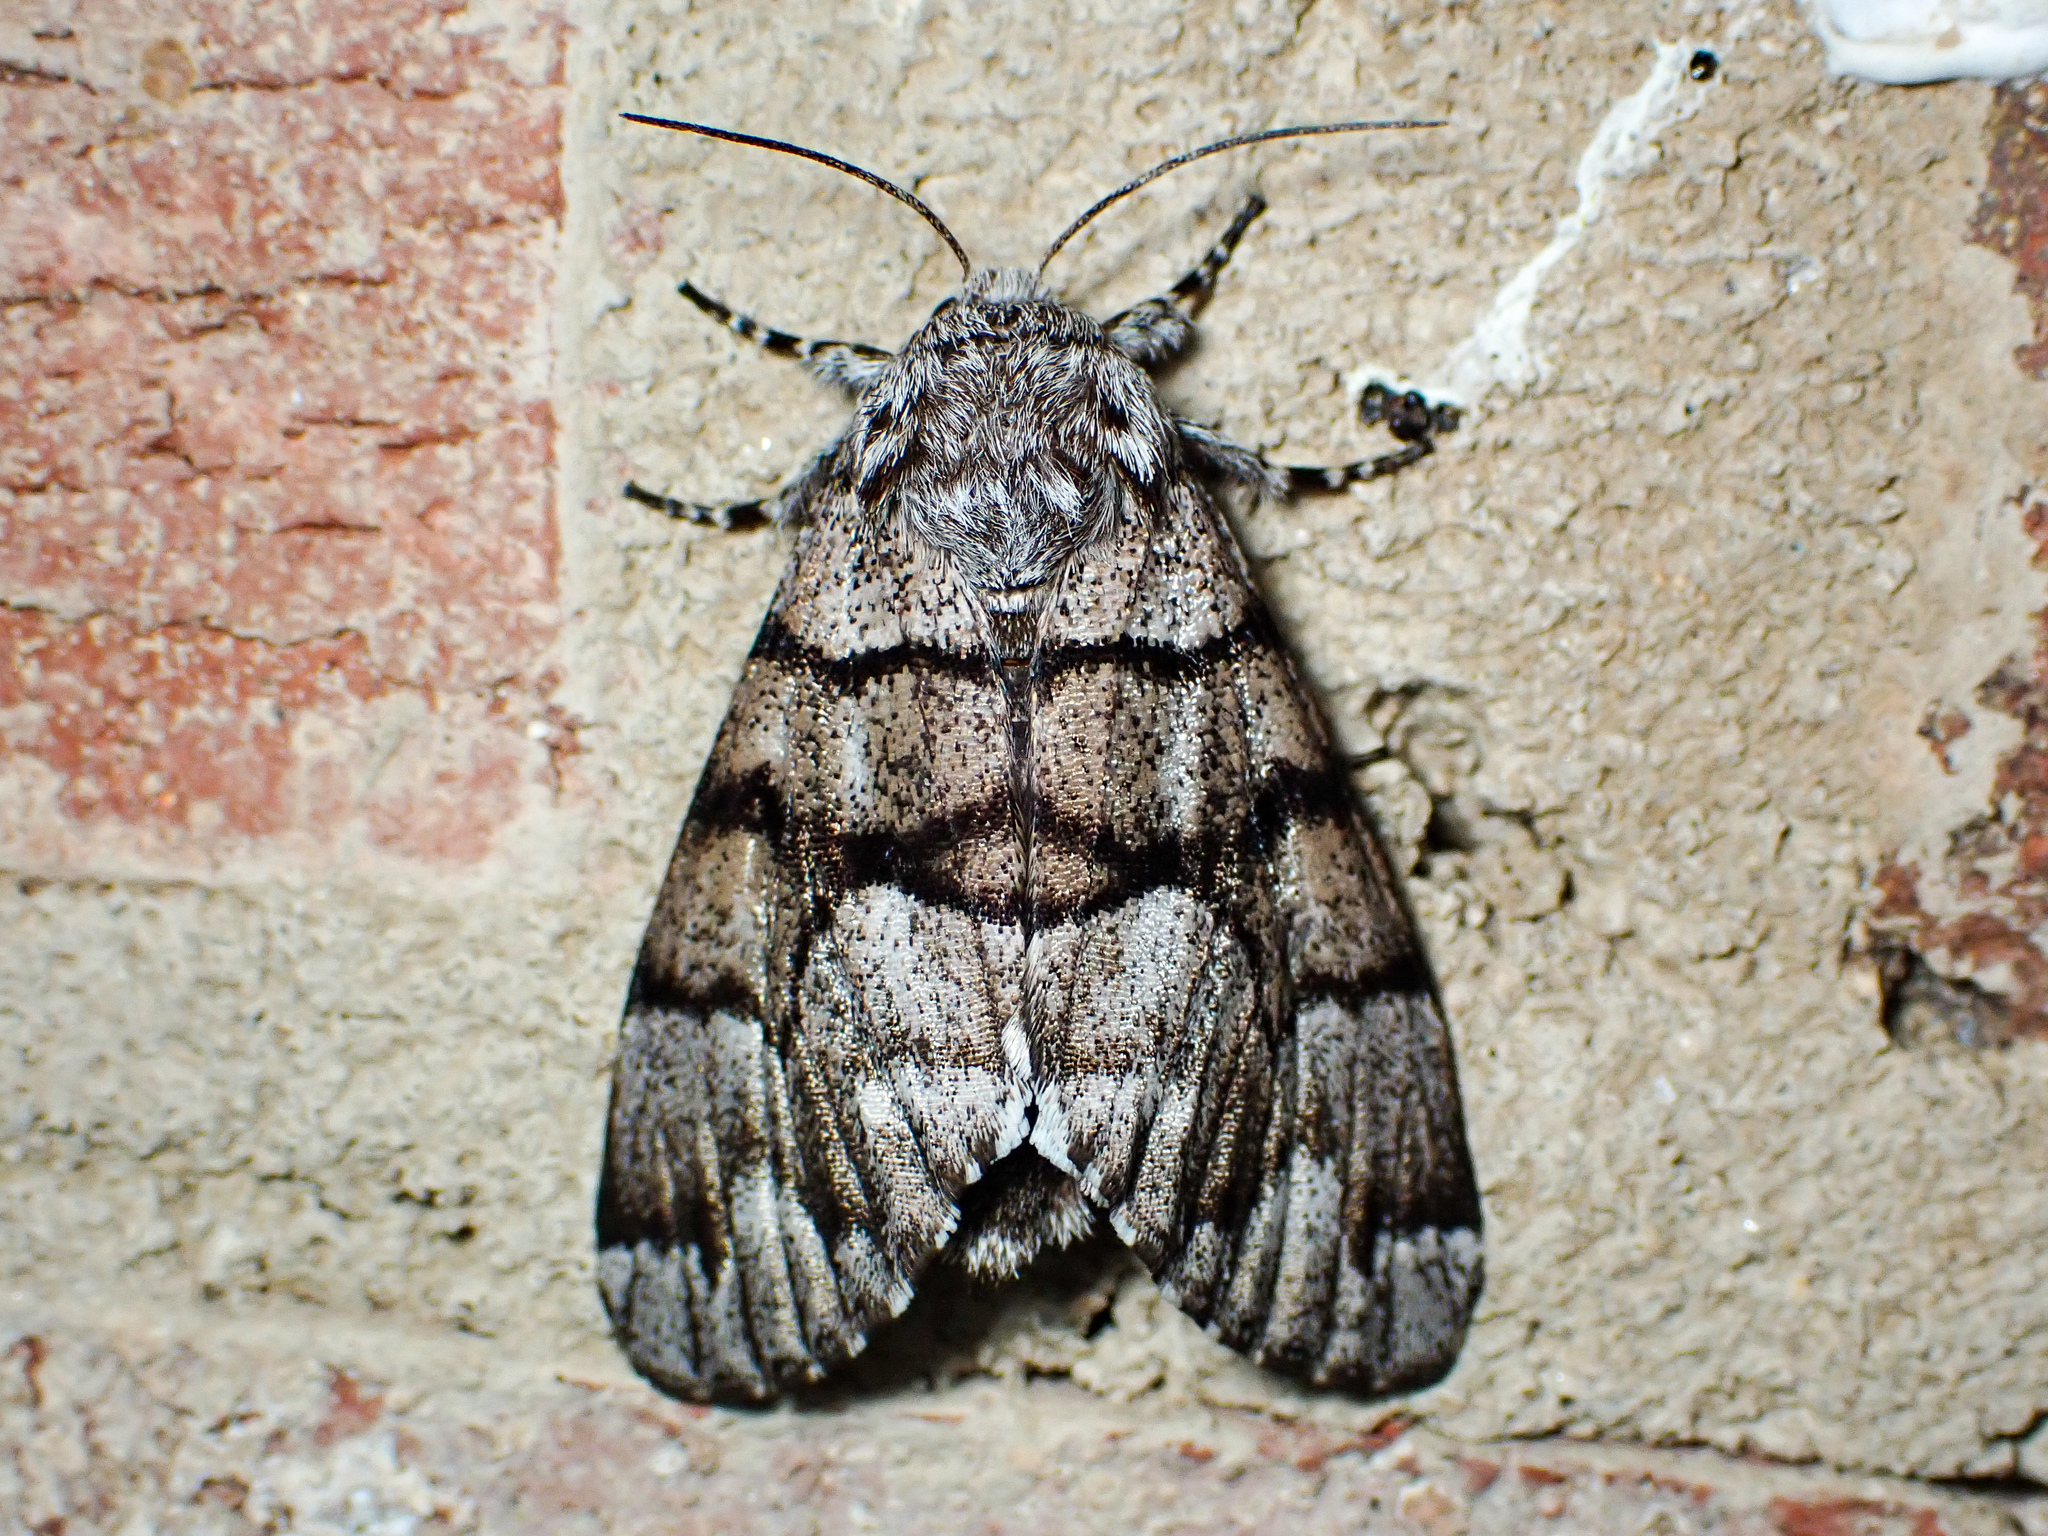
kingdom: Animalia
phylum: Arthropoda
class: Insecta
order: Lepidoptera
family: Noctuidae
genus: Panthea
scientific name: Panthea furcilla
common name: Eastern panthea moth
